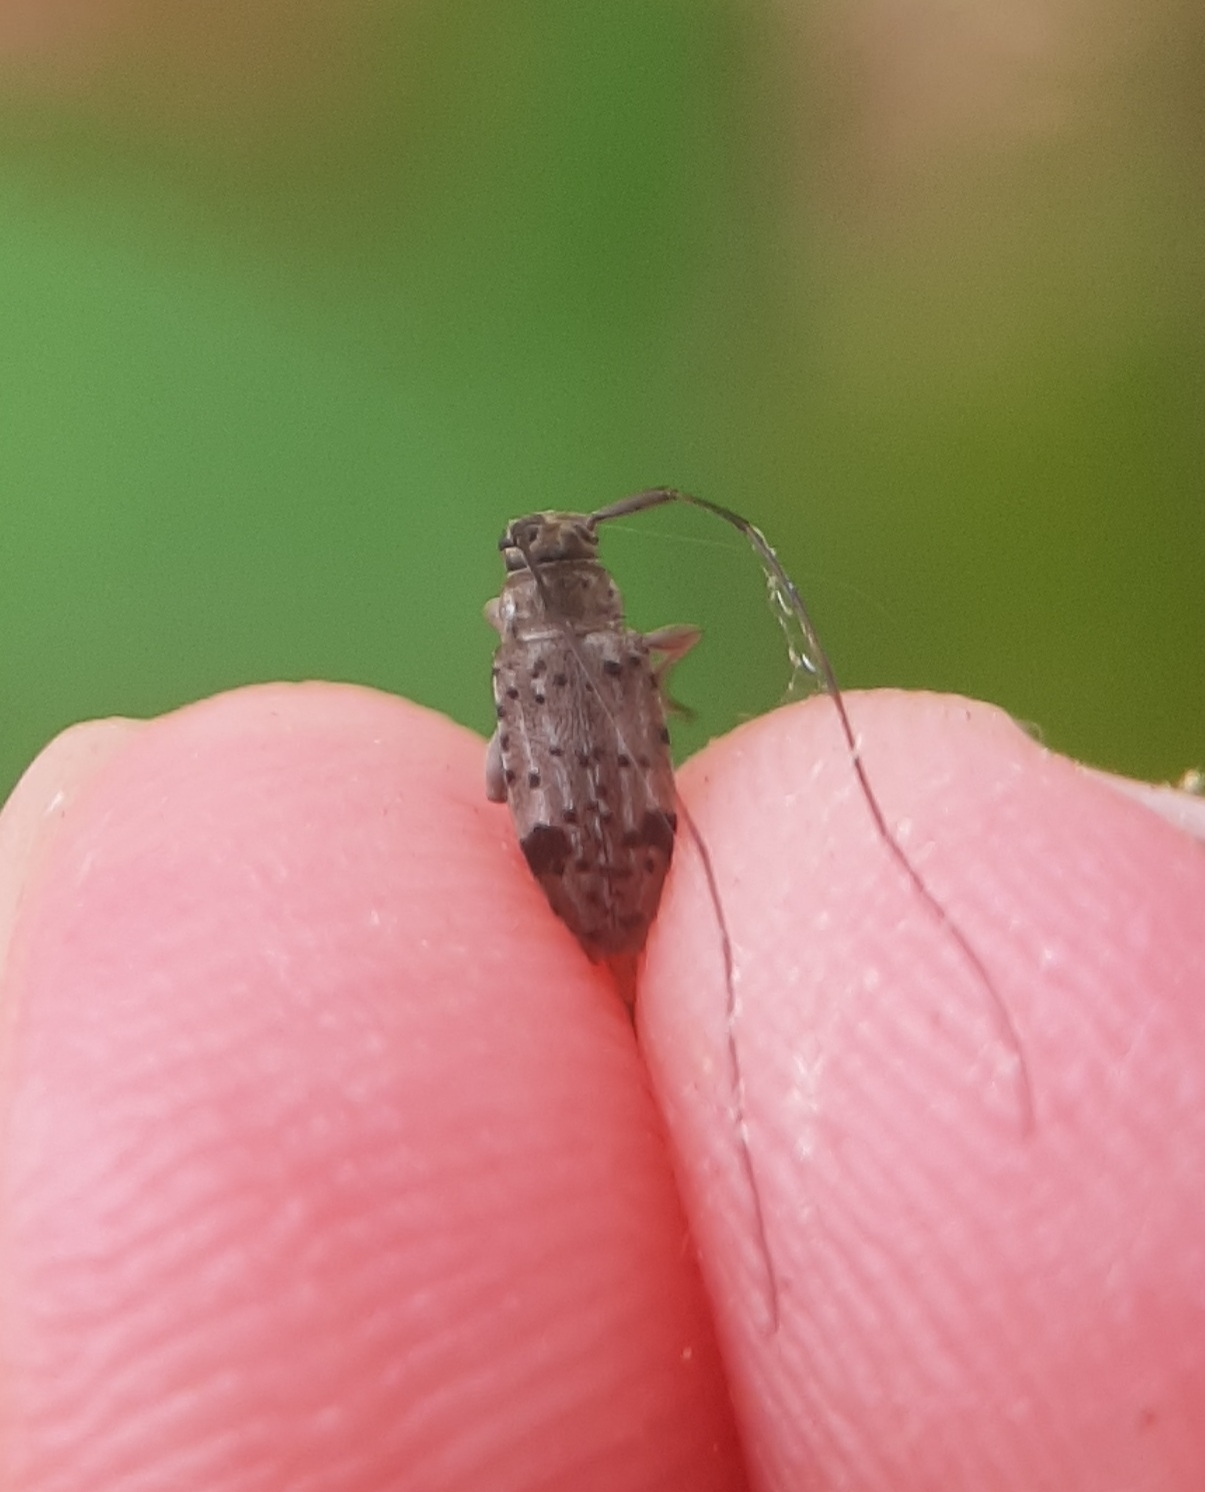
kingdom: Animalia
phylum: Arthropoda
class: Insecta
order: Coleoptera
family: Cerambycidae
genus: Hyperplatys
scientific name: Hyperplatys maculata
